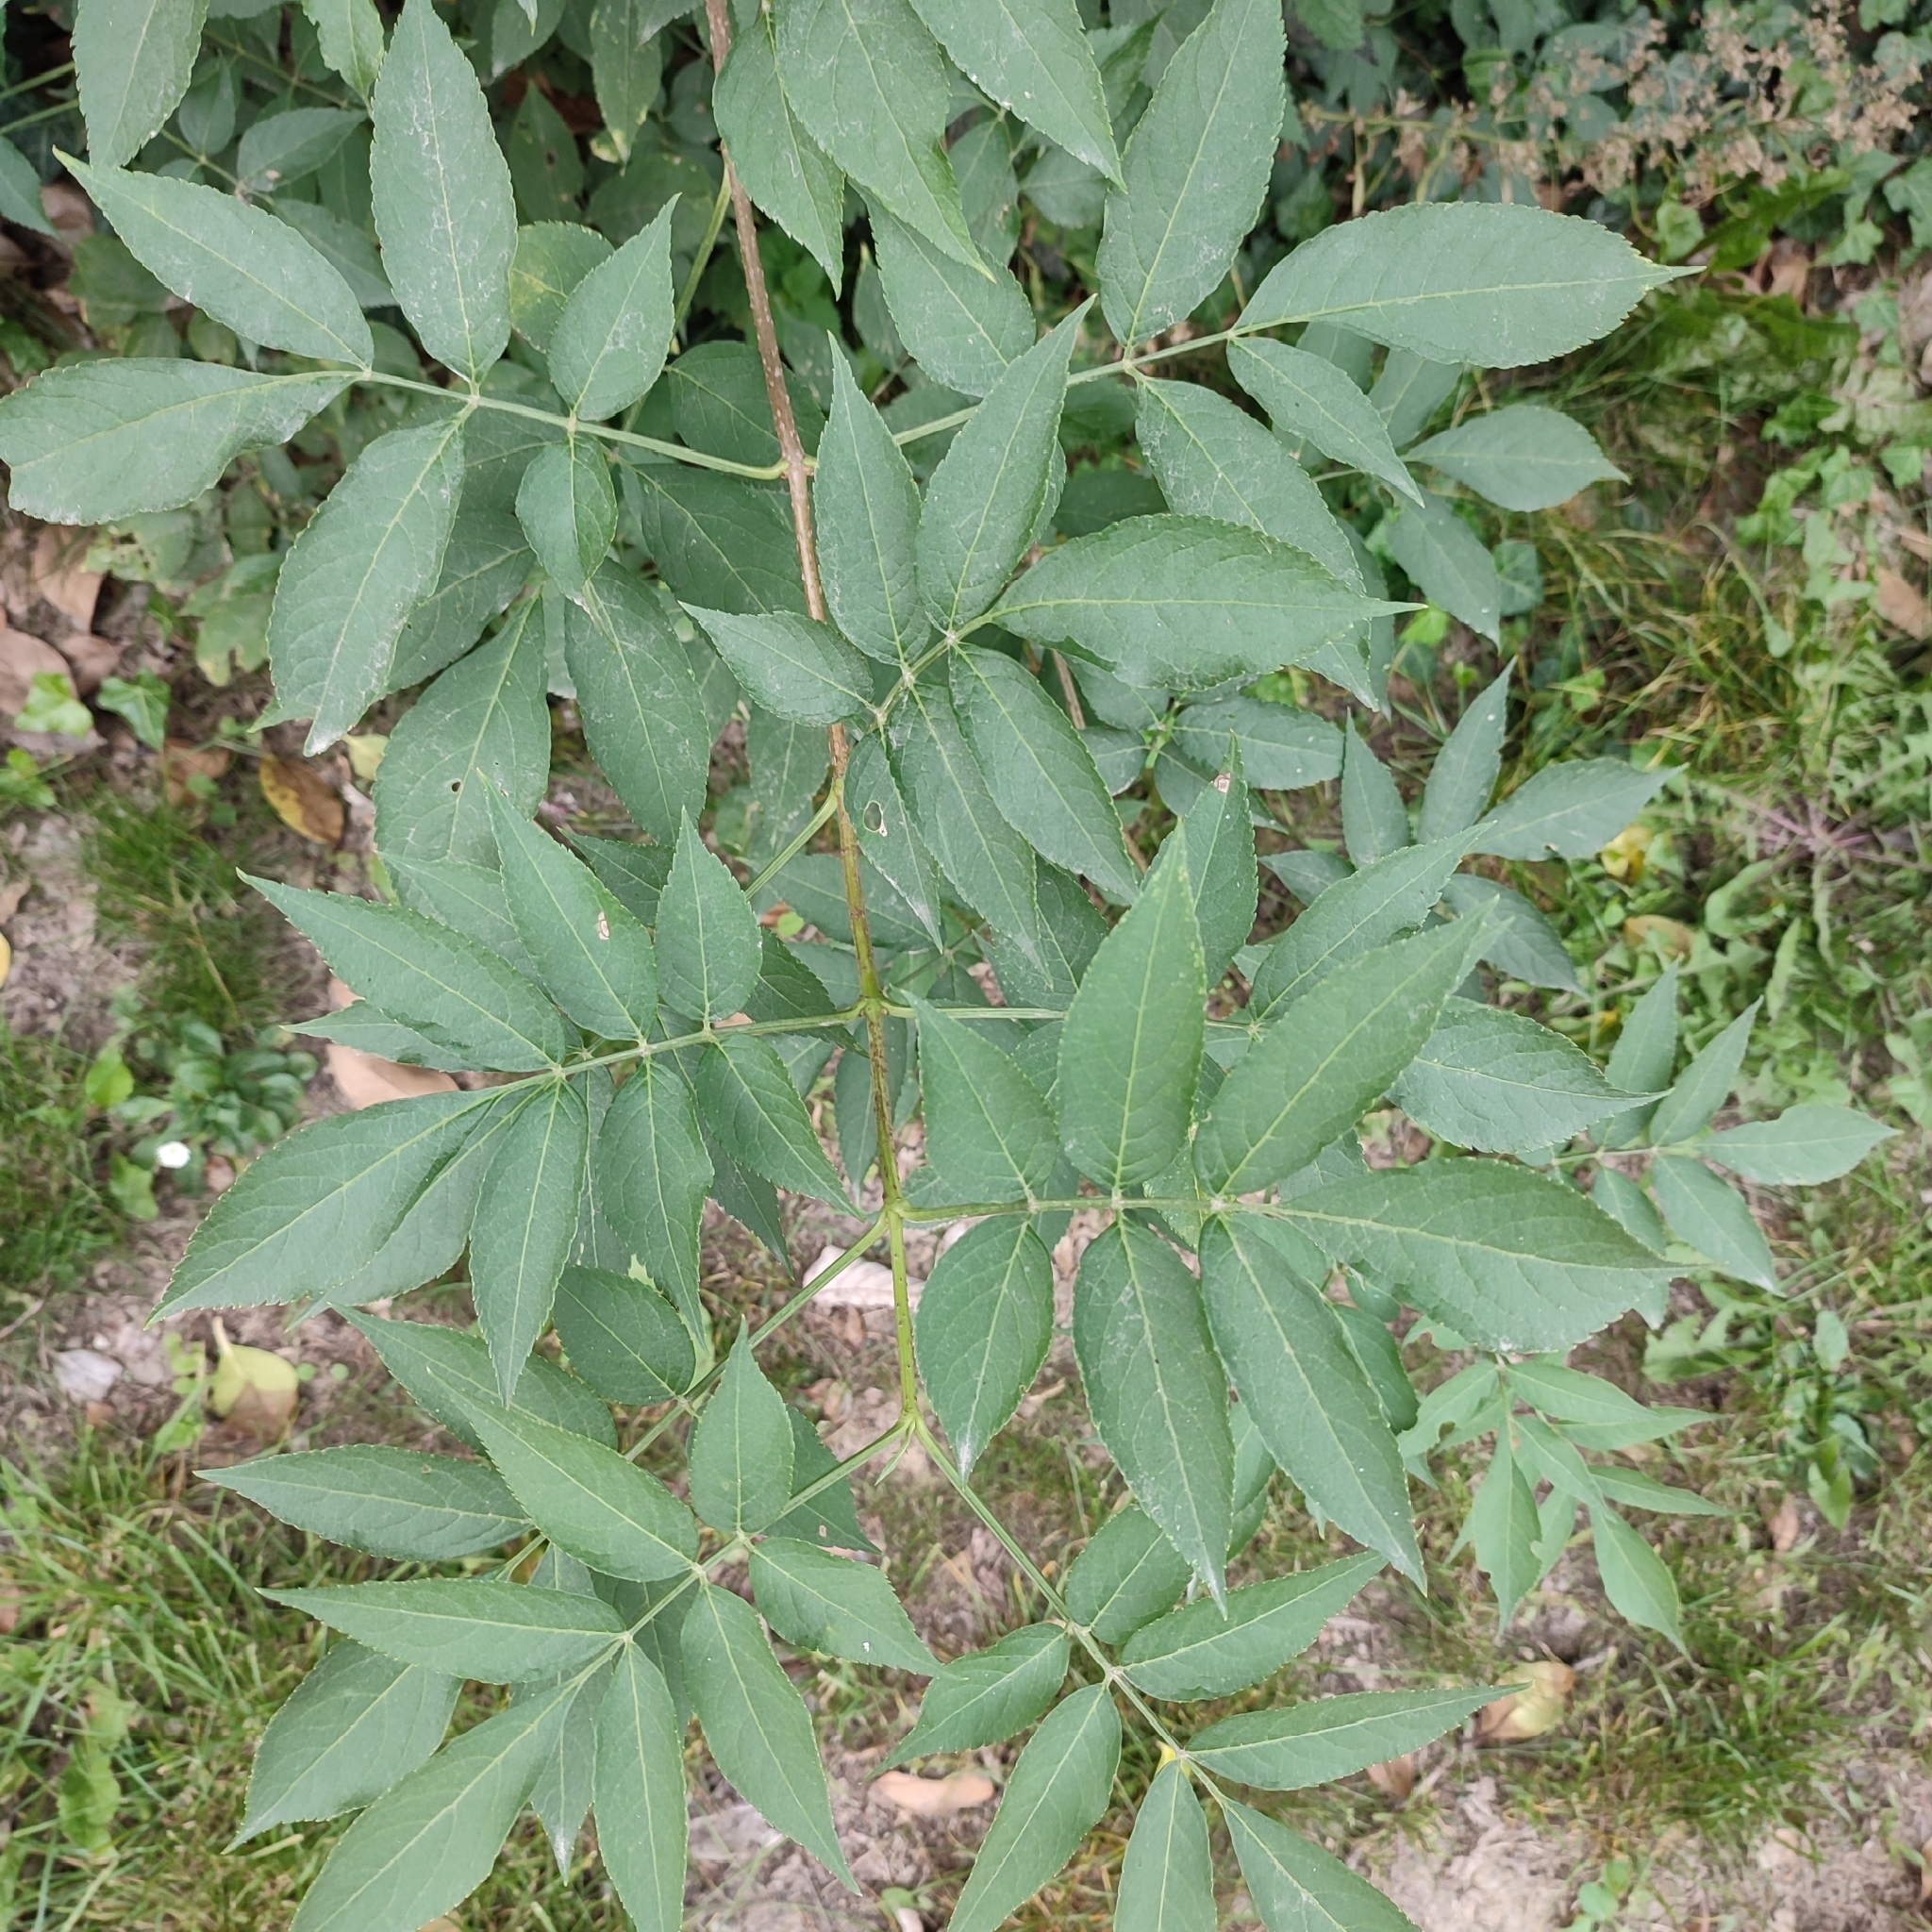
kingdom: Plantae
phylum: Tracheophyta
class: Magnoliopsida
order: Dipsacales
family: Viburnaceae
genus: Sambucus
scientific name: Sambucus nigra
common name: Elder
